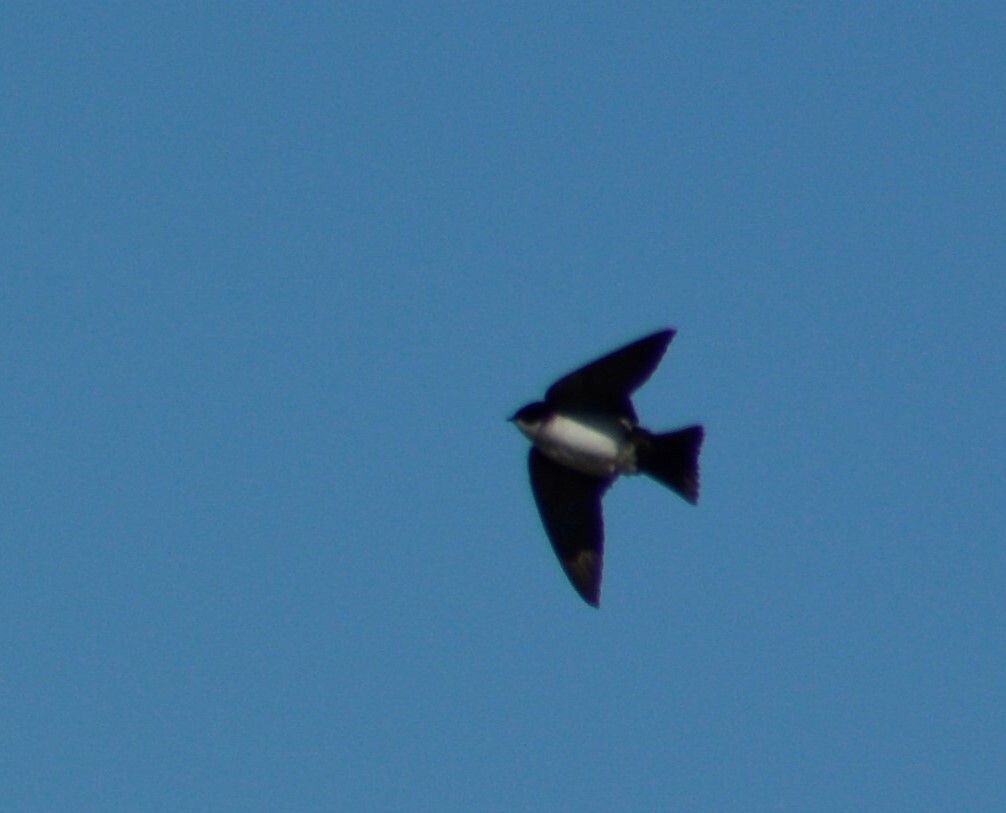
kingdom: Animalia
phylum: Chordata
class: Aves
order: Passeriformes
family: Hirundinidae
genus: Notiochelidon
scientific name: Notiochelidon cyanoleuca
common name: Blue-and-white swallow
